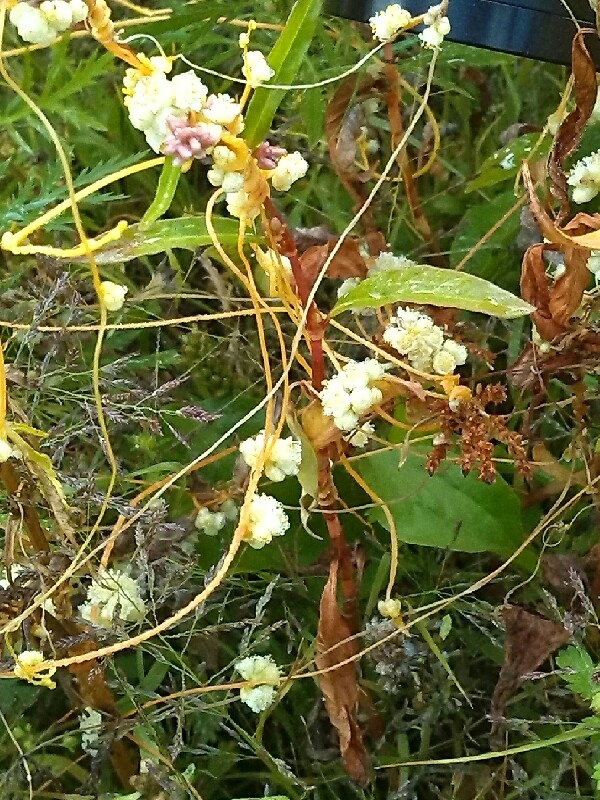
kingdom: Plantae
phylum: Tracheophyta
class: Magnoliopsida
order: Solanales
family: Convolvulaceae
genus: Cuscuta
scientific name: Cuscuta campestris
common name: Yellow dodder
